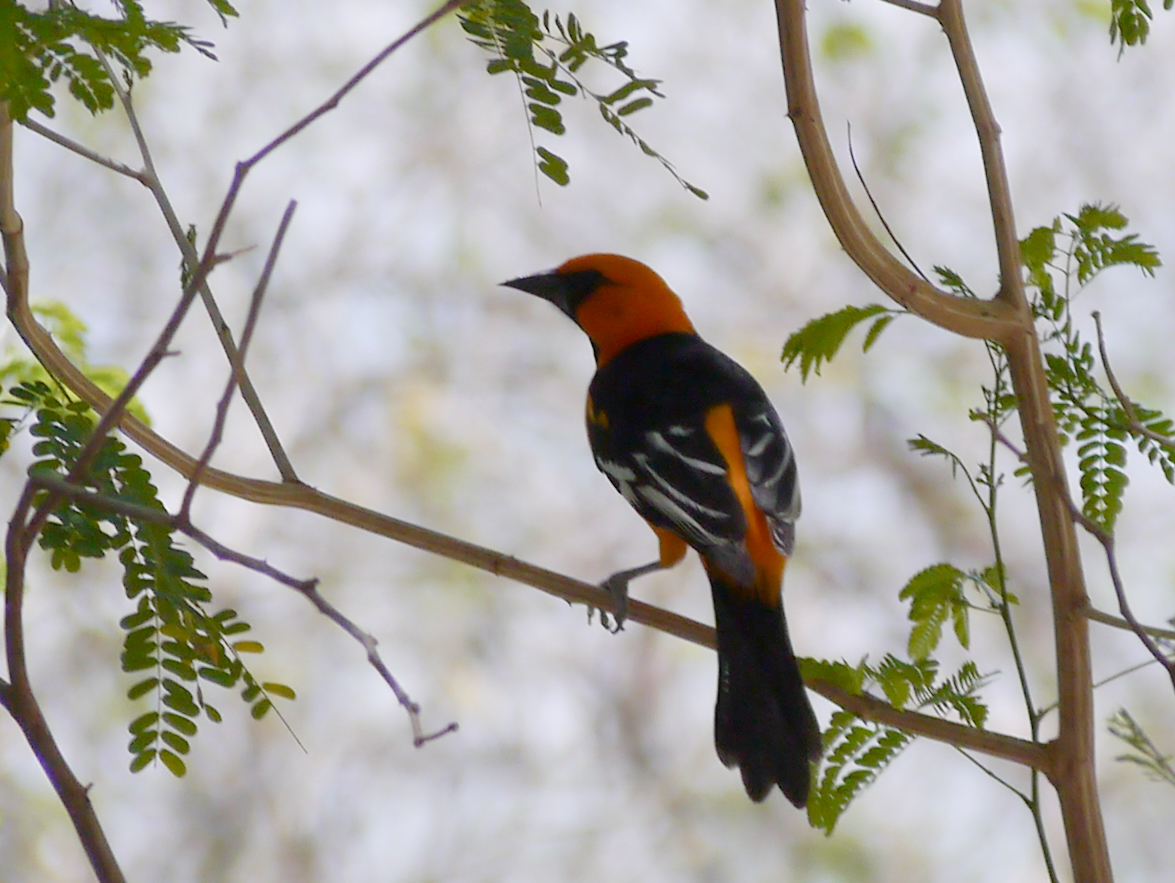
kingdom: Animalia
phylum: Chordata
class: Aves
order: Passeriformes
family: Icteridae
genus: Icterus
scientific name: Icterus gularis
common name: Altamira oriole
